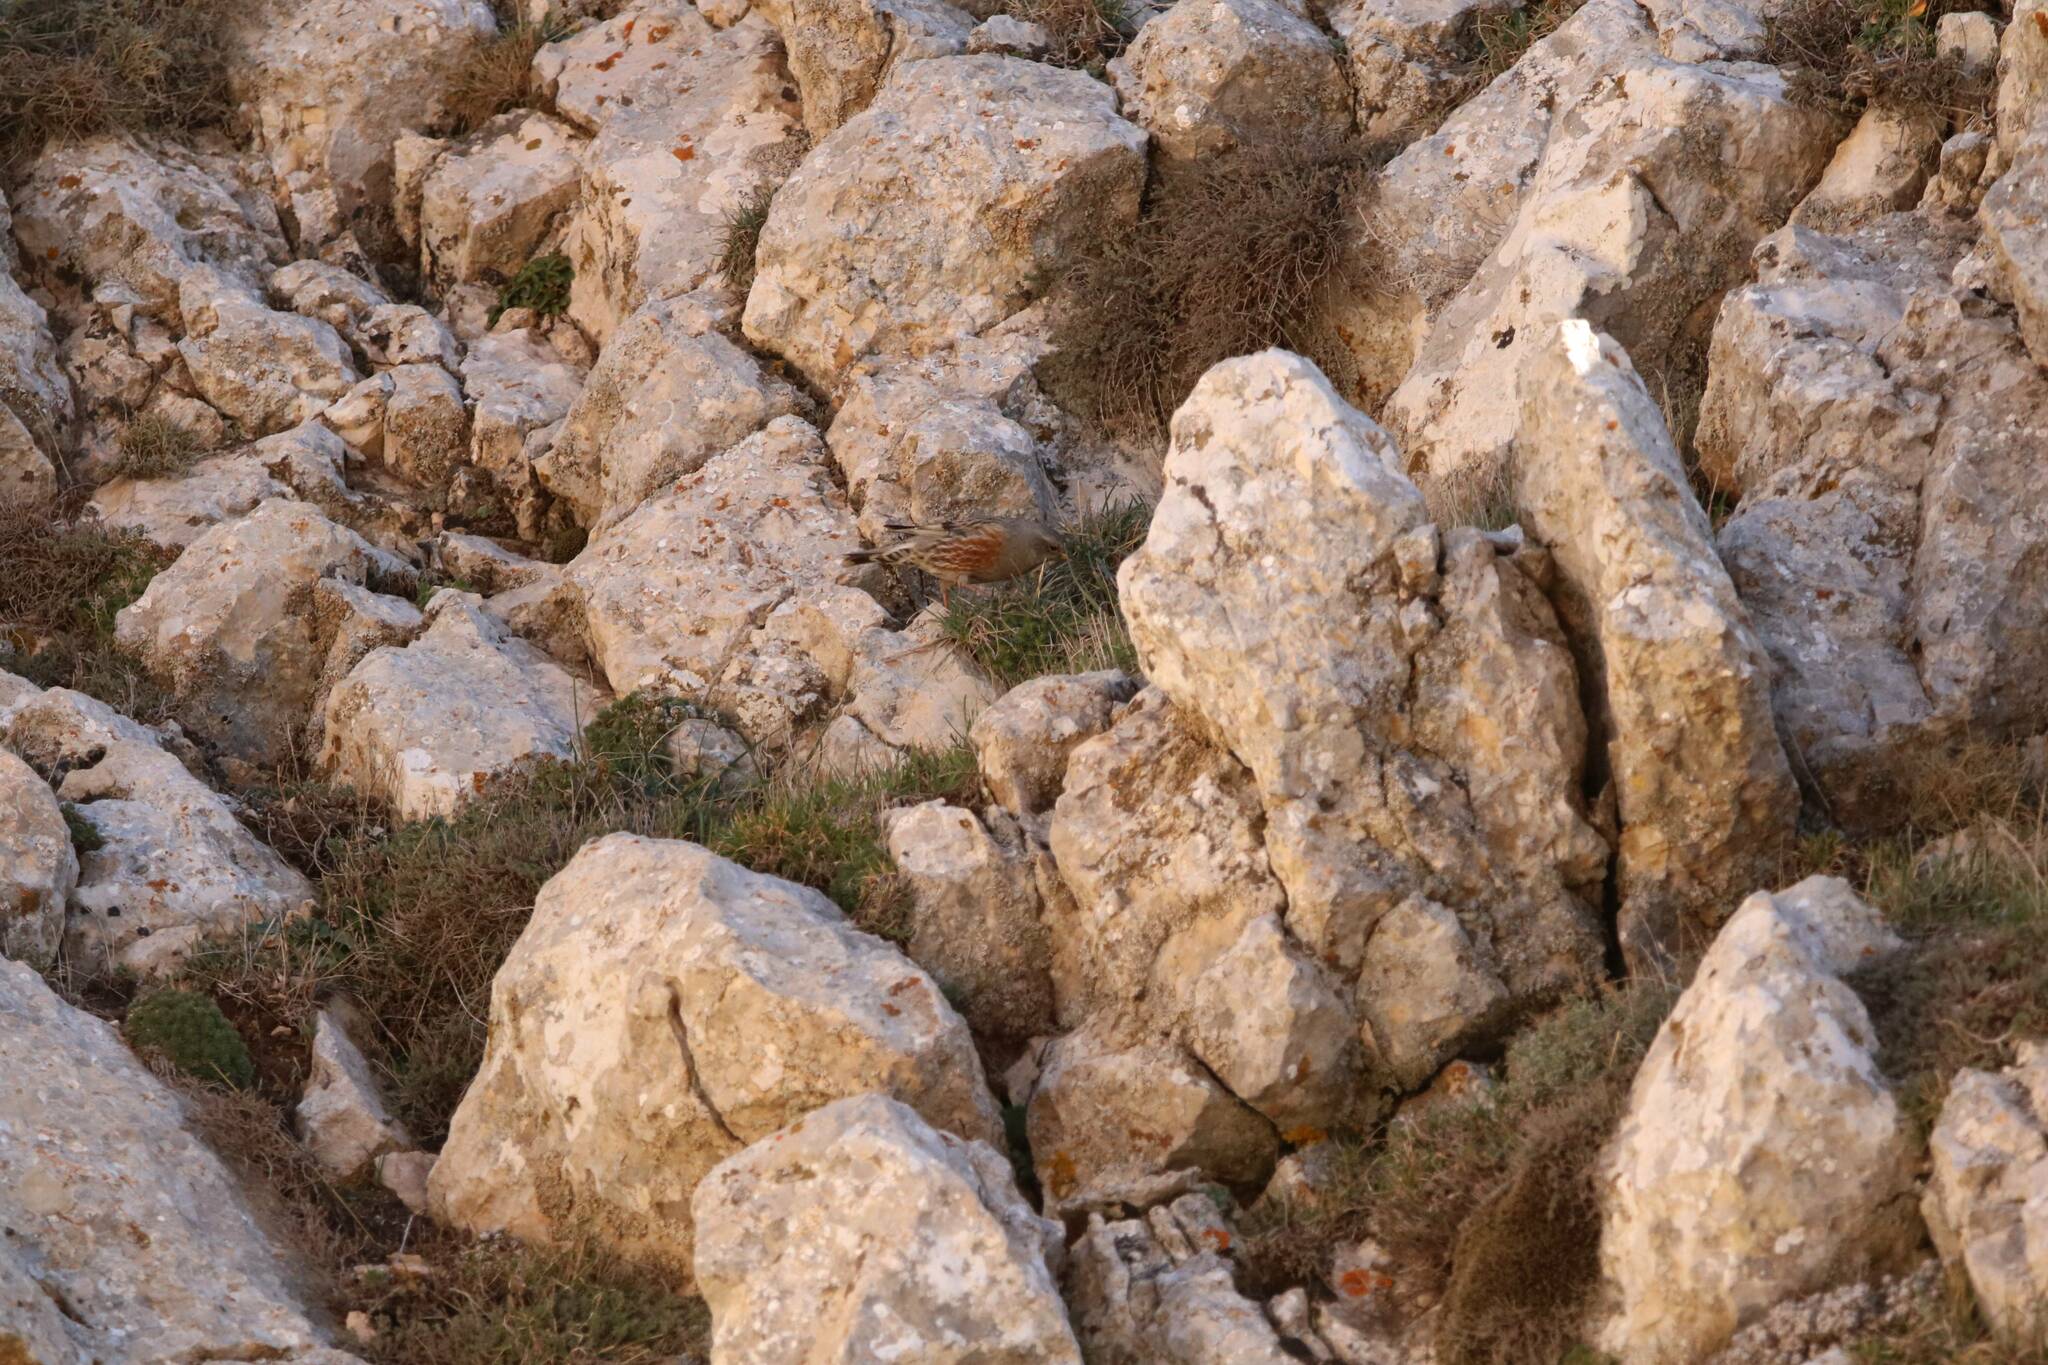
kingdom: Animalia
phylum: Chordata
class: Aves
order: Passeriformes
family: Prunellidae
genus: Prunella
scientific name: Prunella collaris
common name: Alpine accentor
